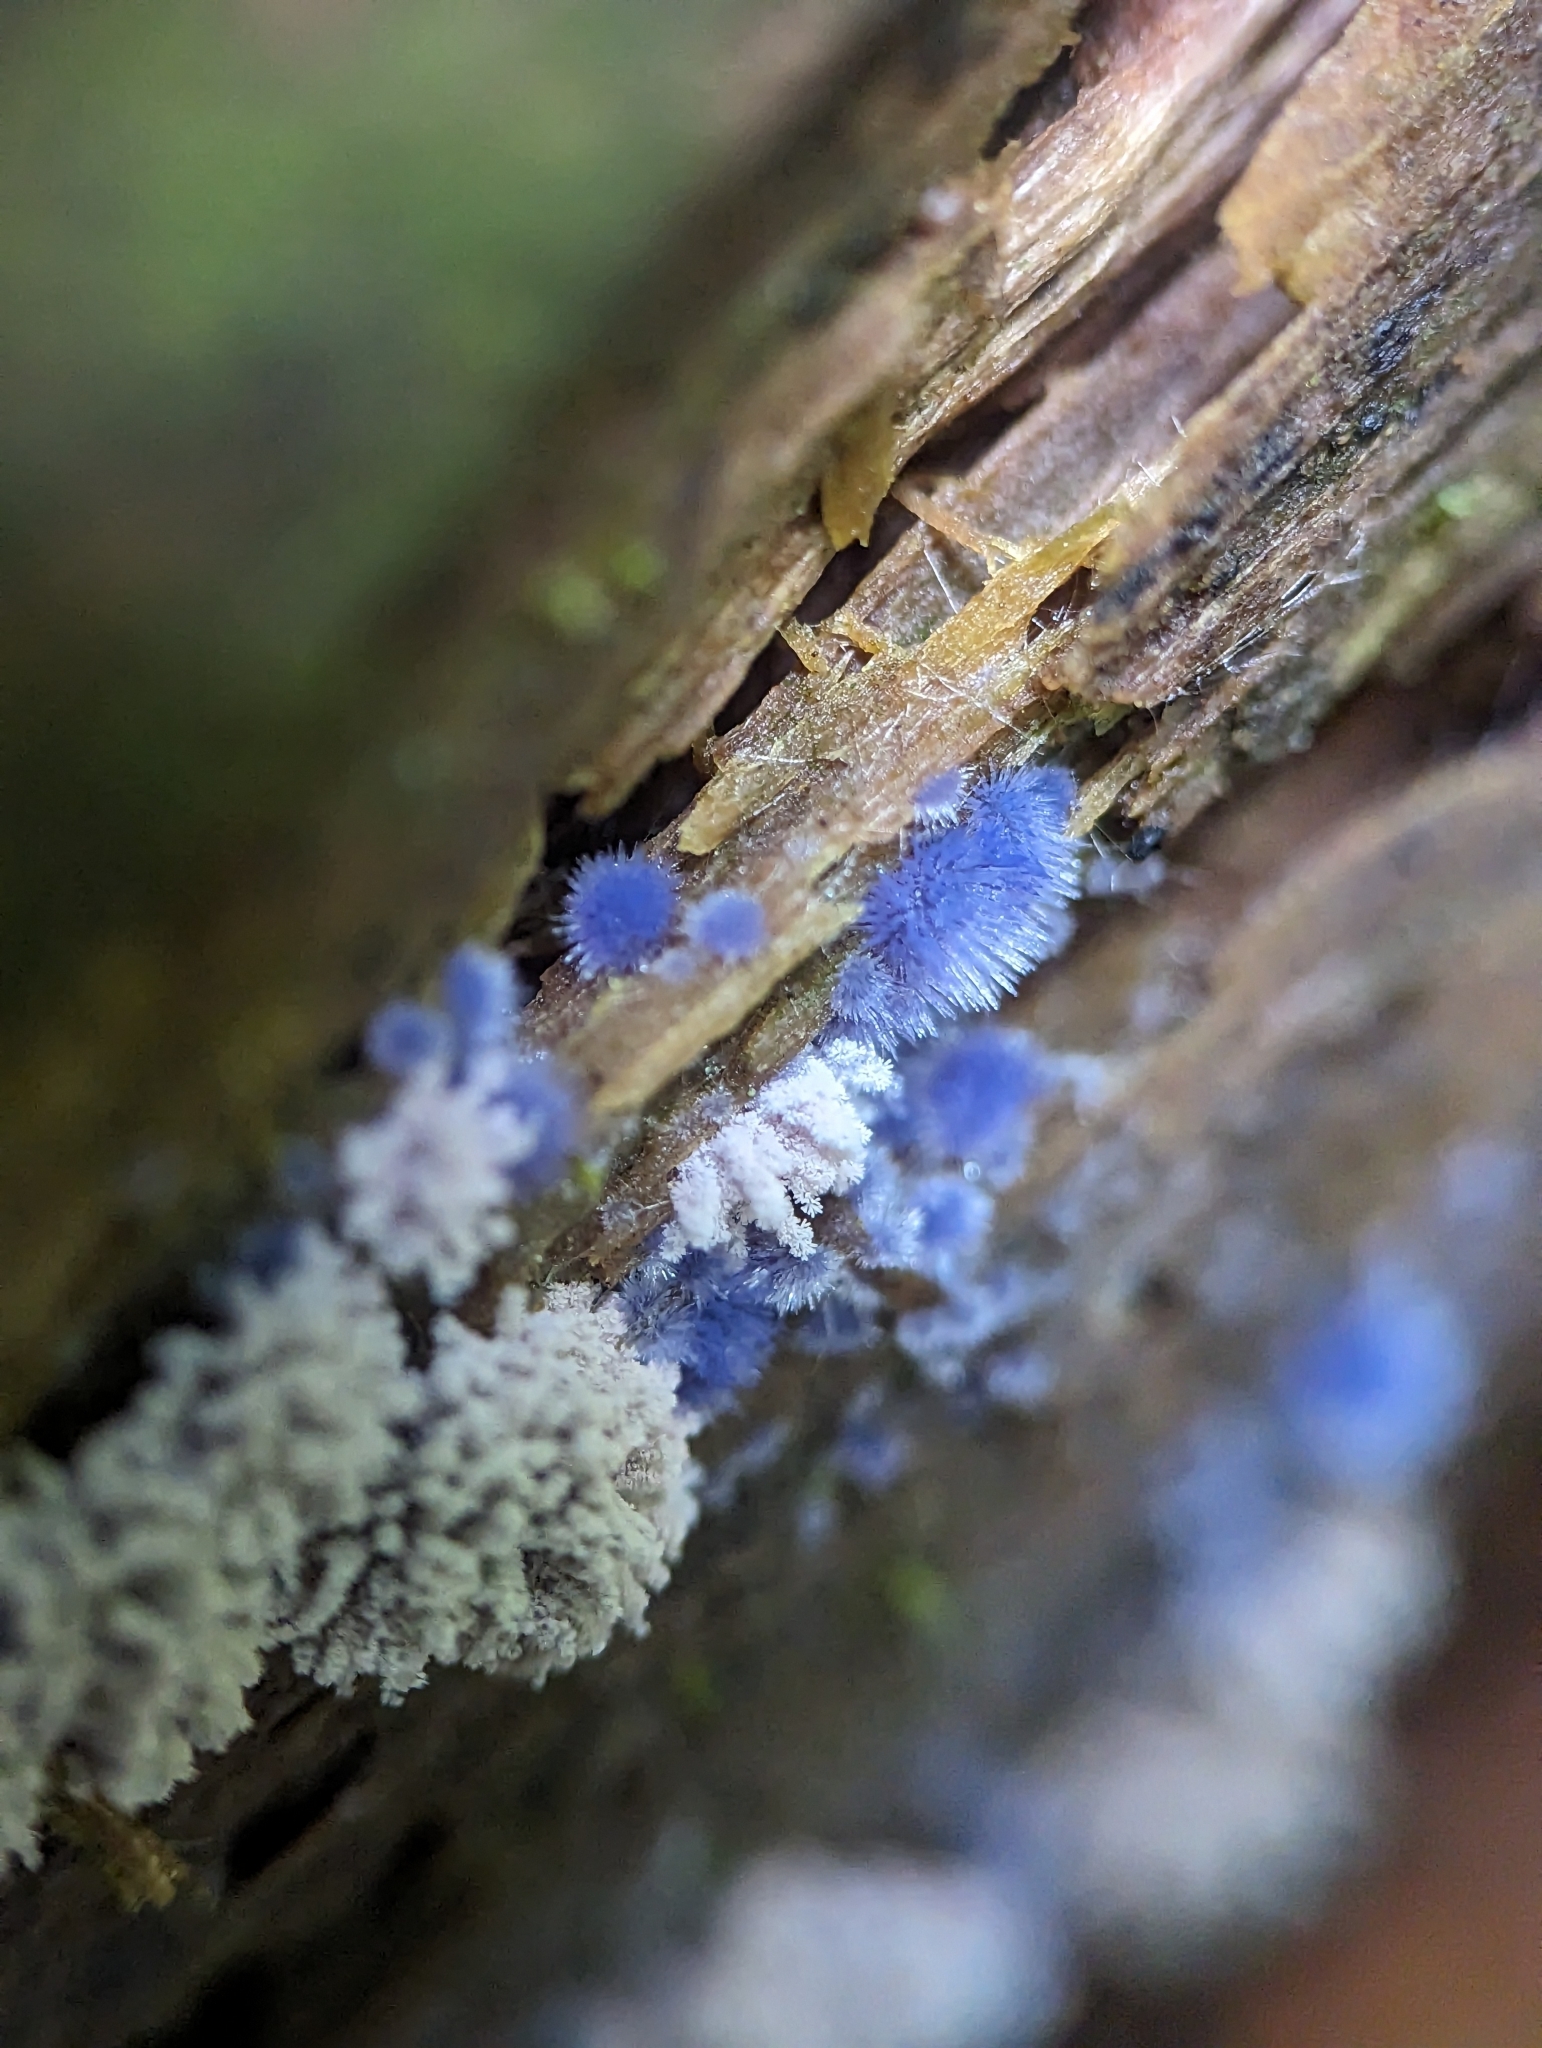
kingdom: Fungi
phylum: Ascomycota
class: Pezizomycetes
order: Pezizales
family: Pezizaceae
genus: Chromelosporiopsis
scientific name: Chromelosporiopsis coerulescens
